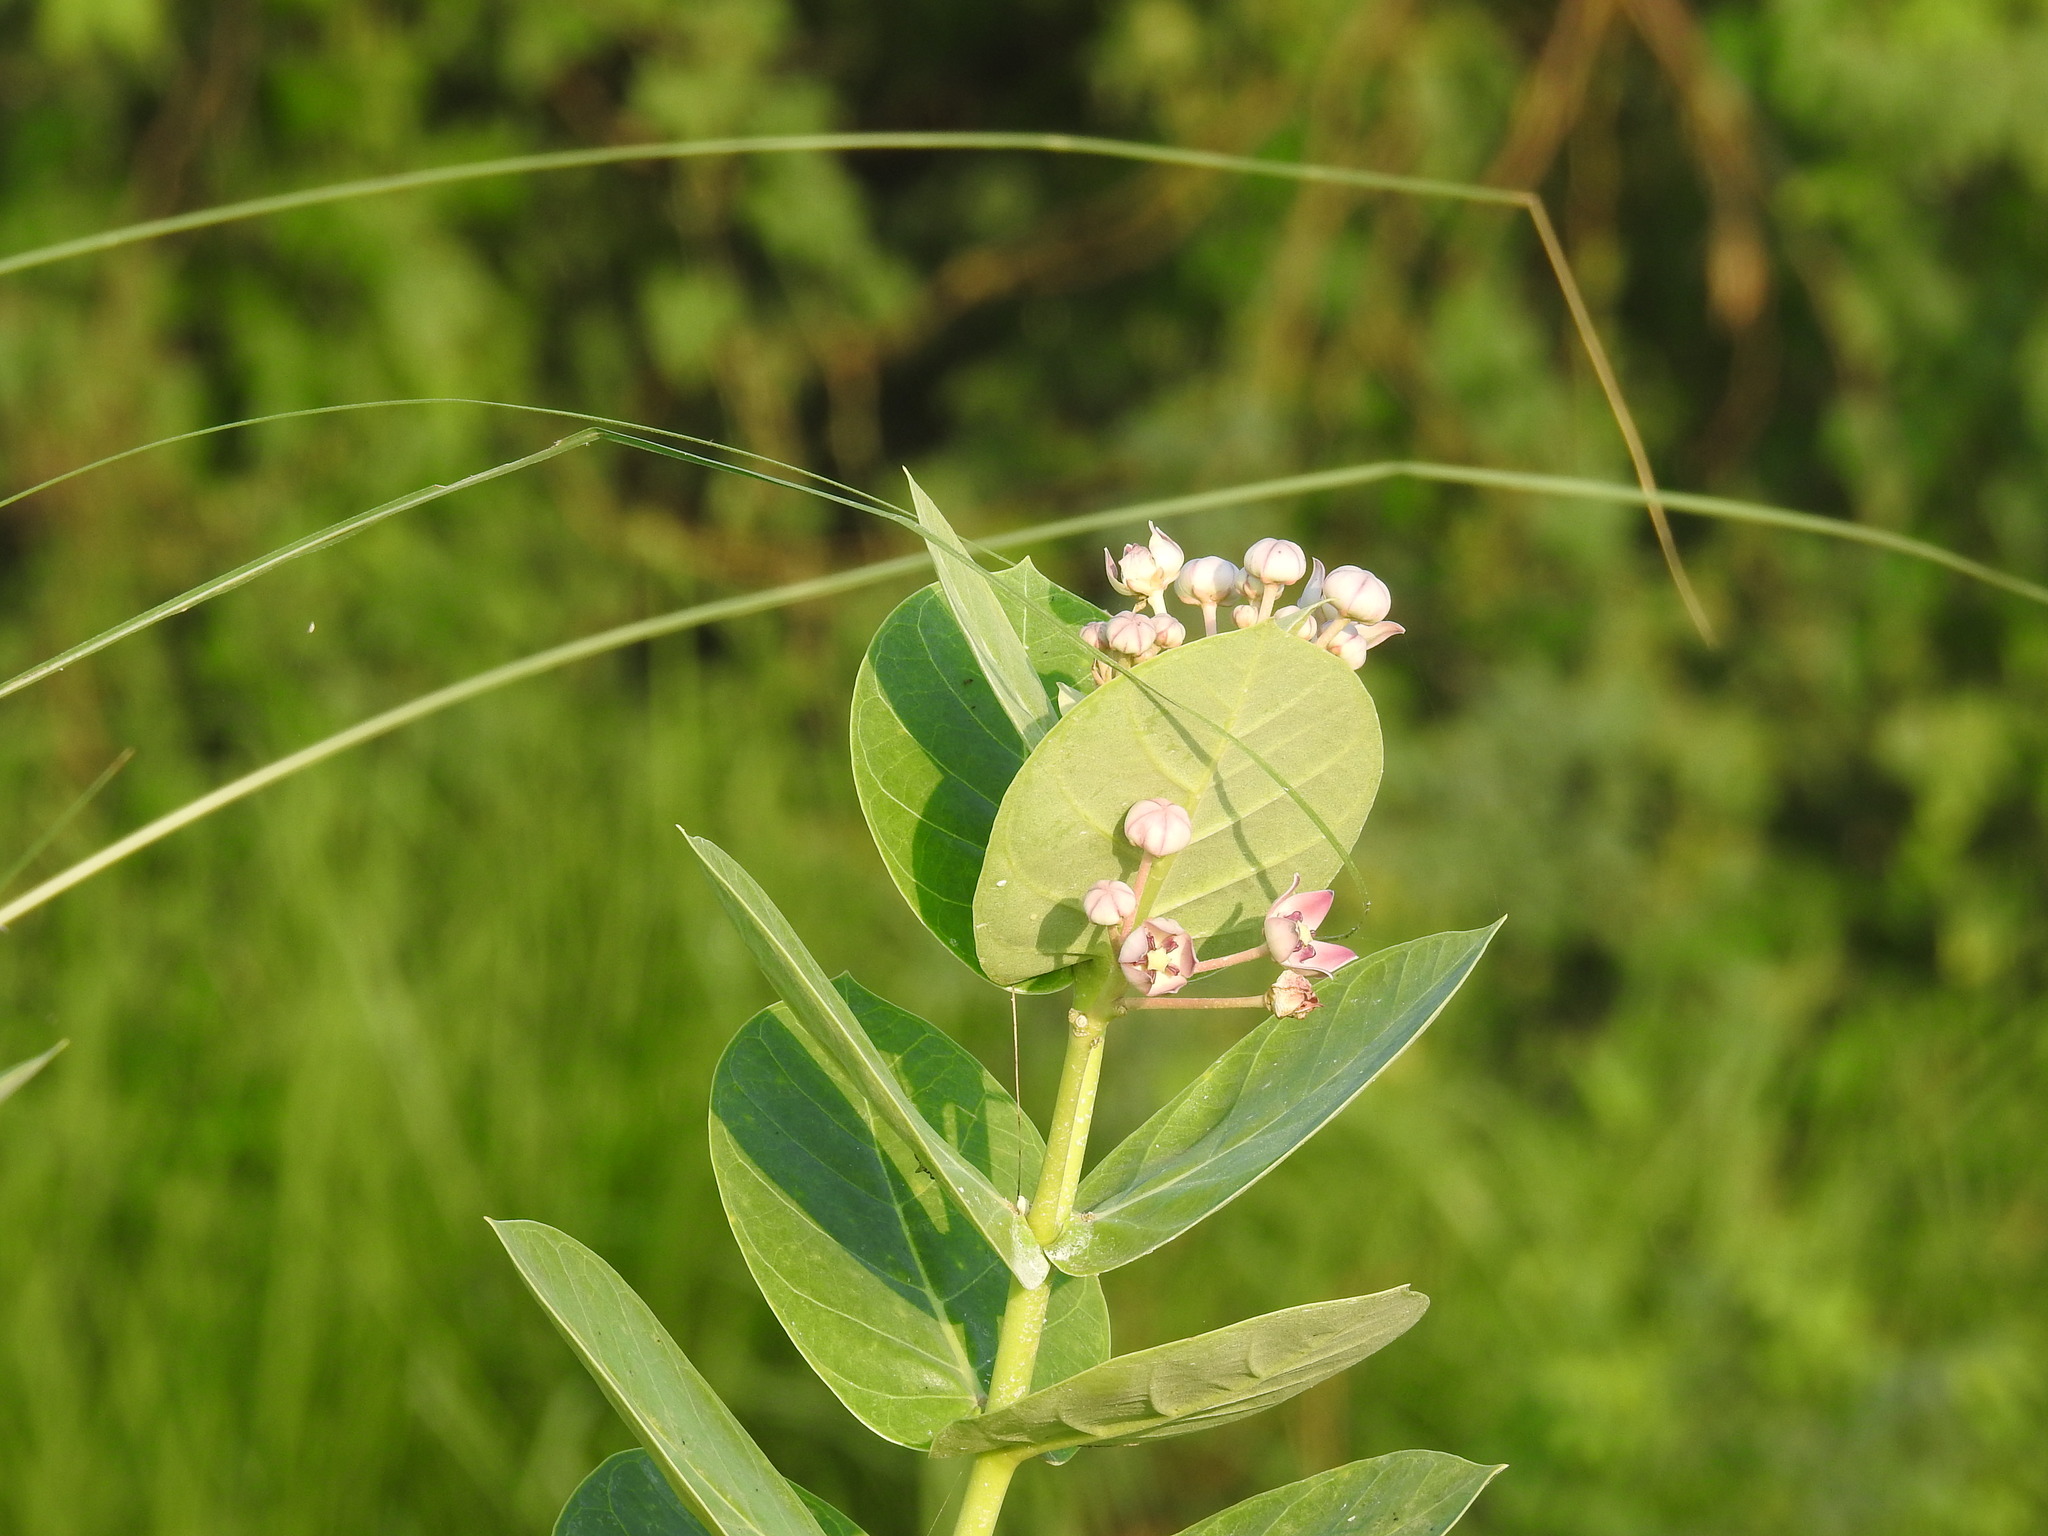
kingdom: Plantae
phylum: Tracheophyta
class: Magnoliopsida
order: Gentianales
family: Apocynaceae
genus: Calotropis
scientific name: Calotropis procera
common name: Roostertree
